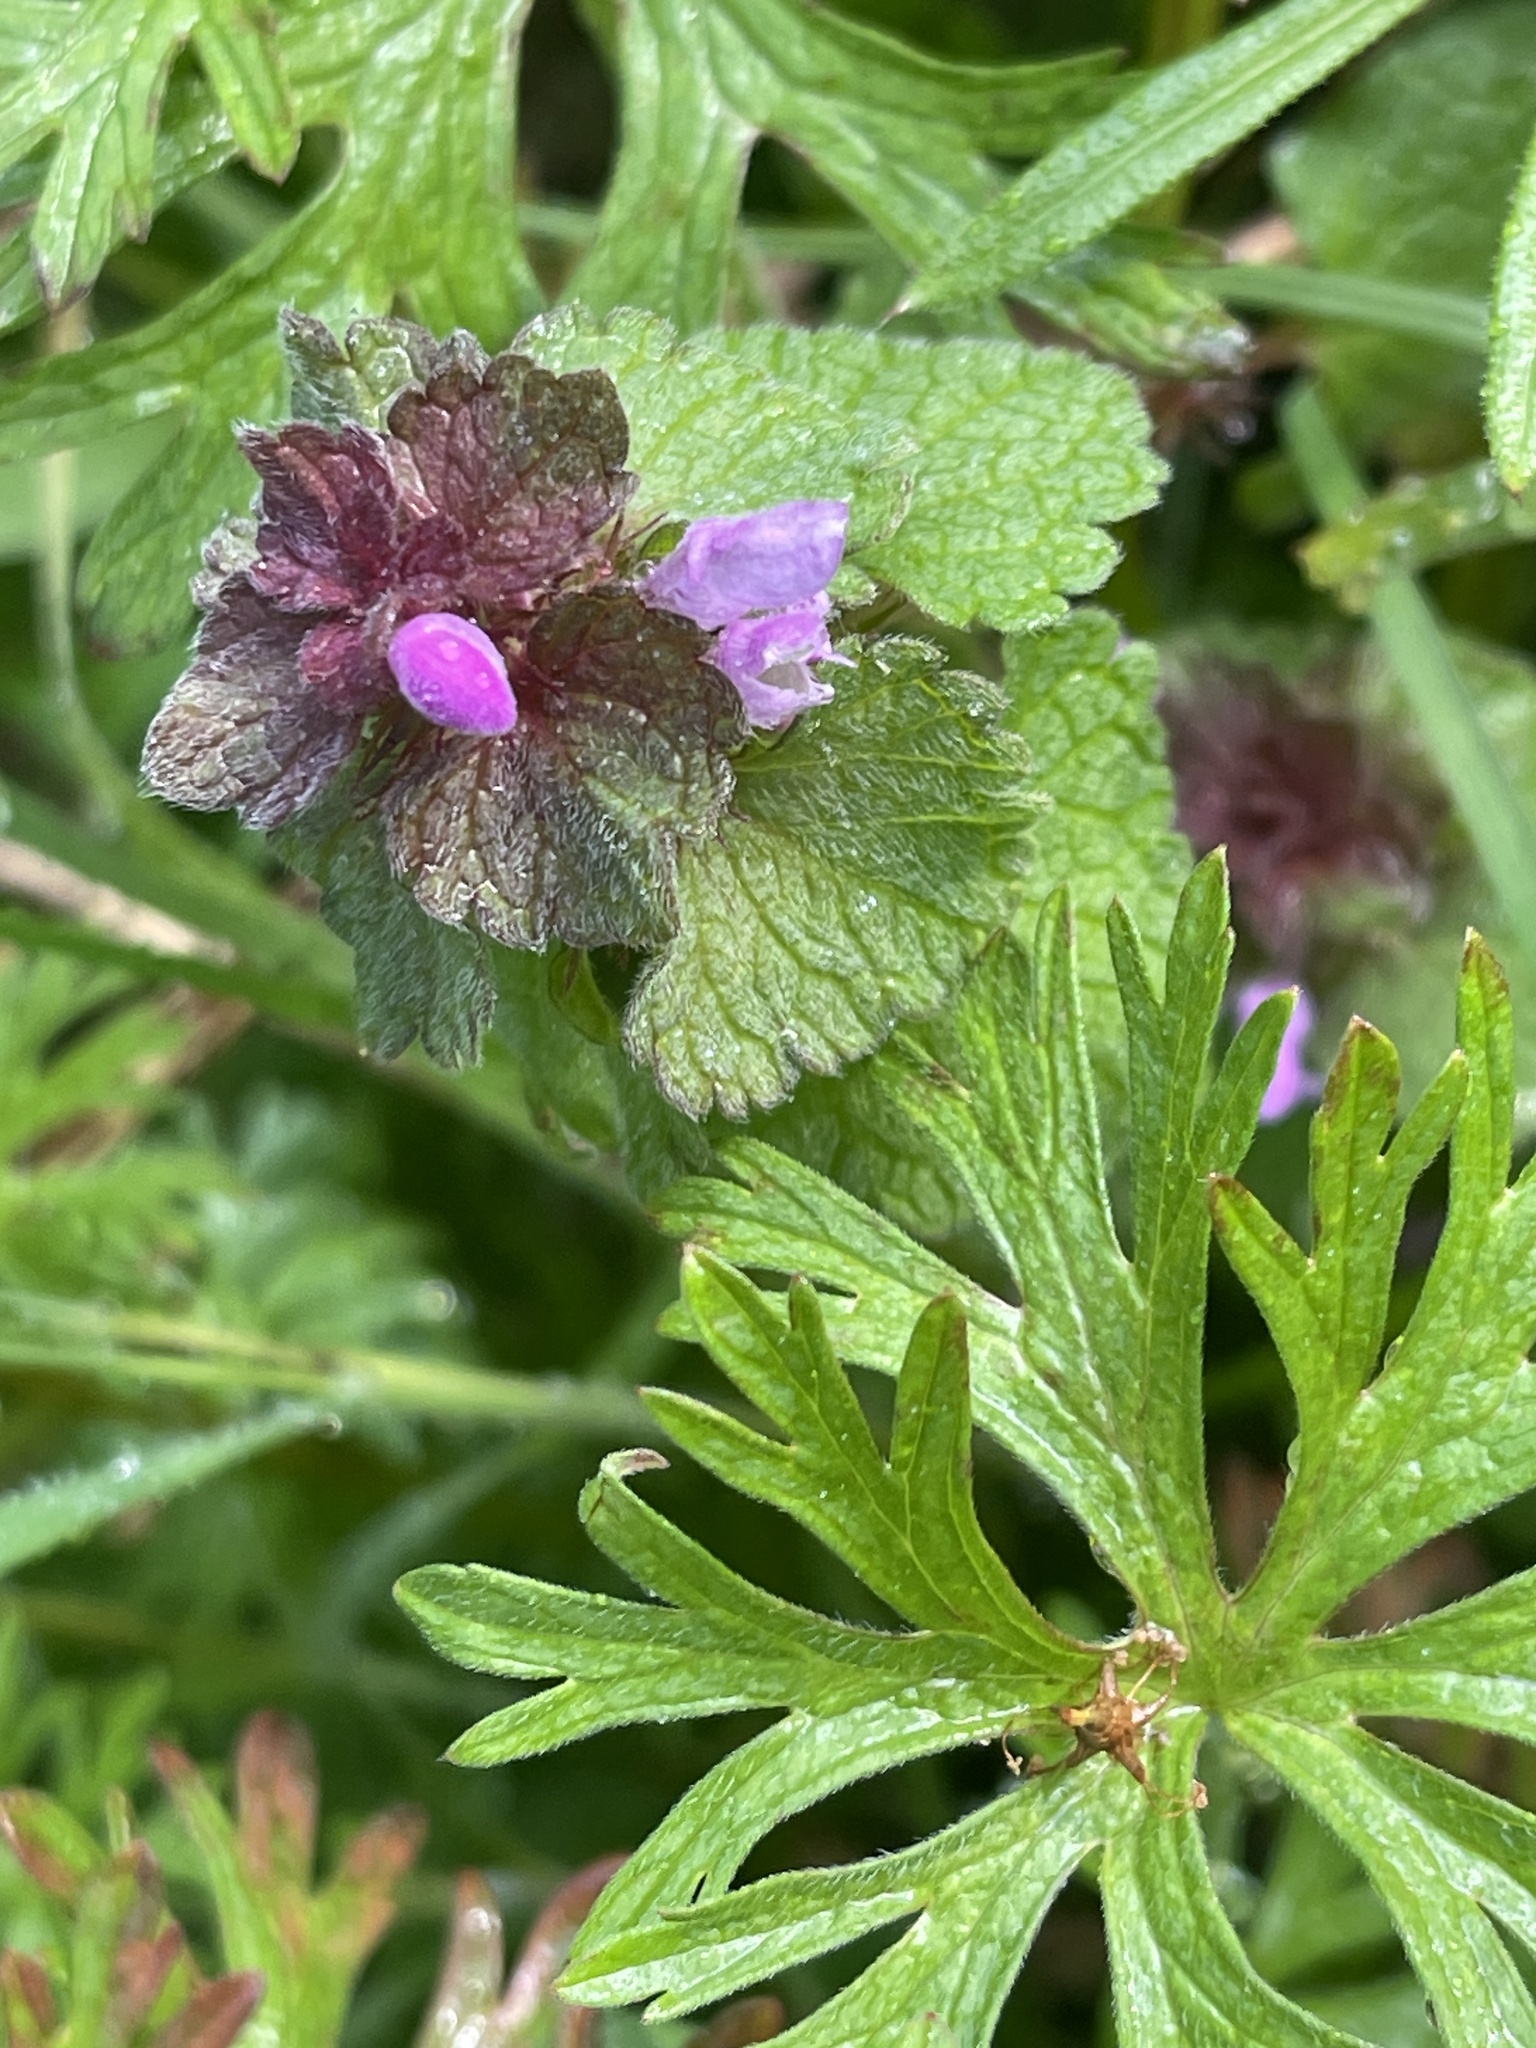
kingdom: Plantae
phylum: Tracheophyta
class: Magnoliopsida
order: Lamiales
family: Lamiaceae
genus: Lamium
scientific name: Lamium purpureum
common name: Red dead-nettle
